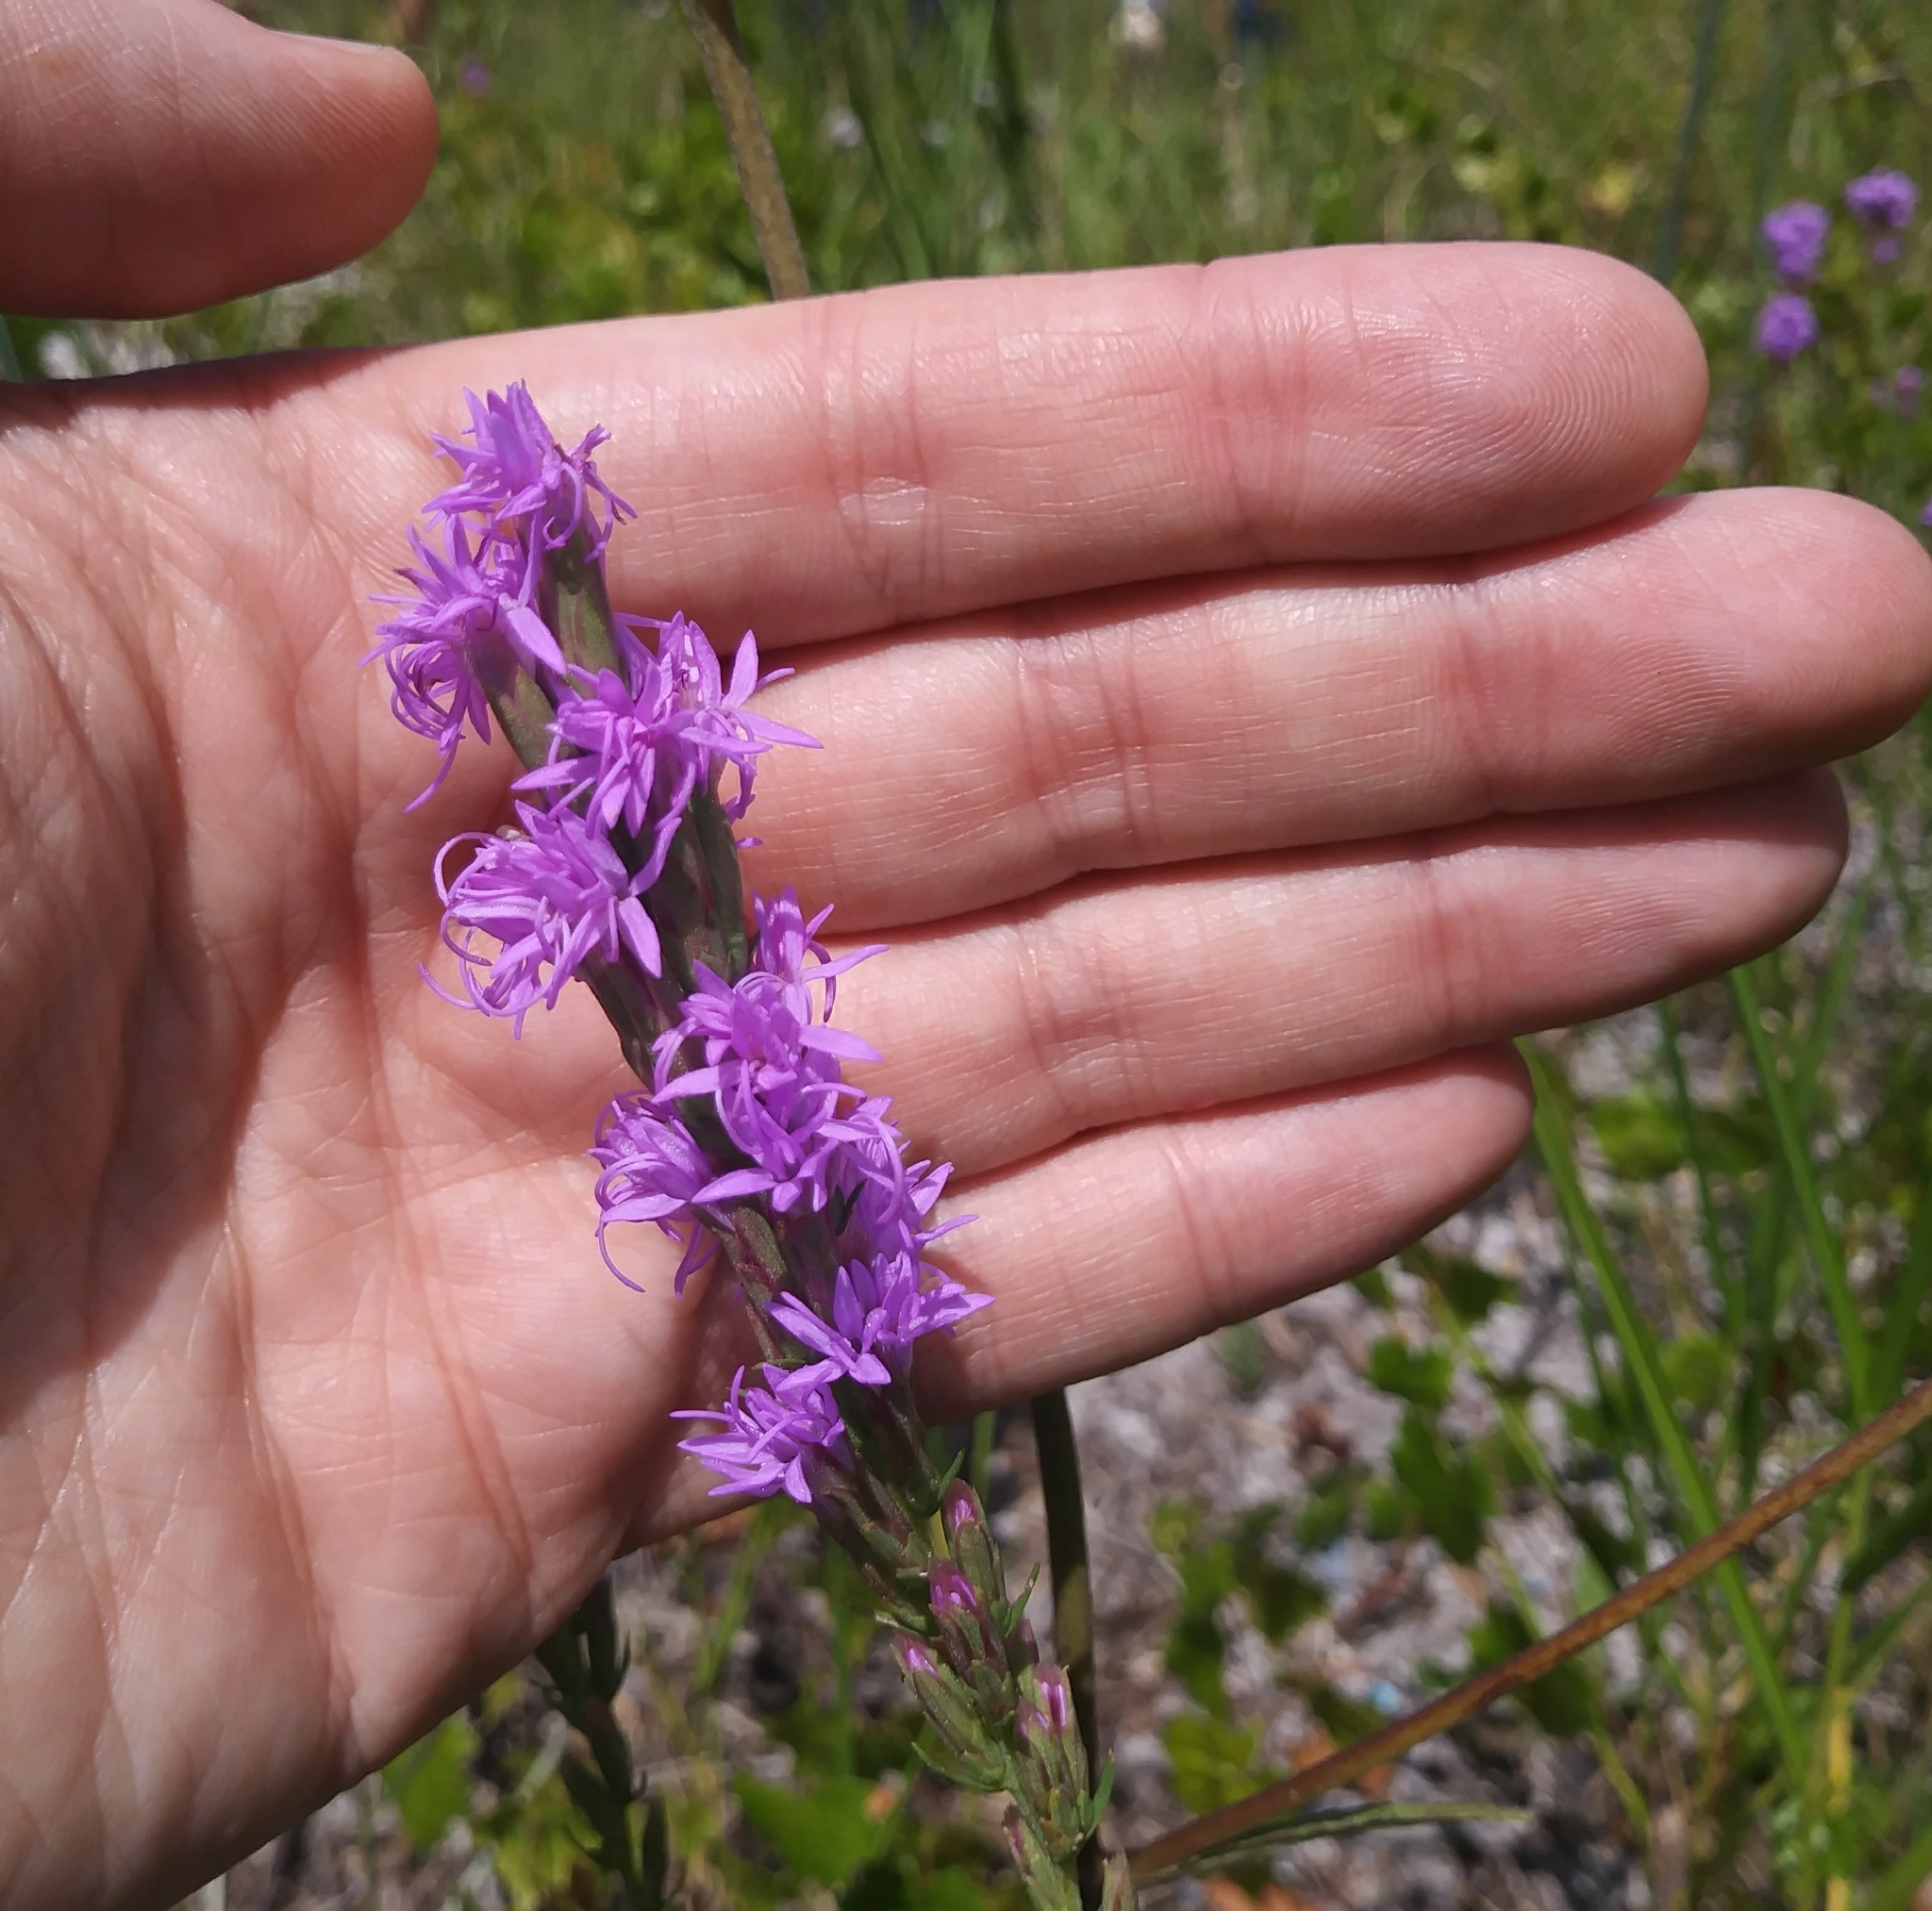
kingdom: Plantae
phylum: Tracheophyta
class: Magnoliopsida
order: Asterales
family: Asteraceae
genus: Liatris
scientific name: Liatris chapmanii
